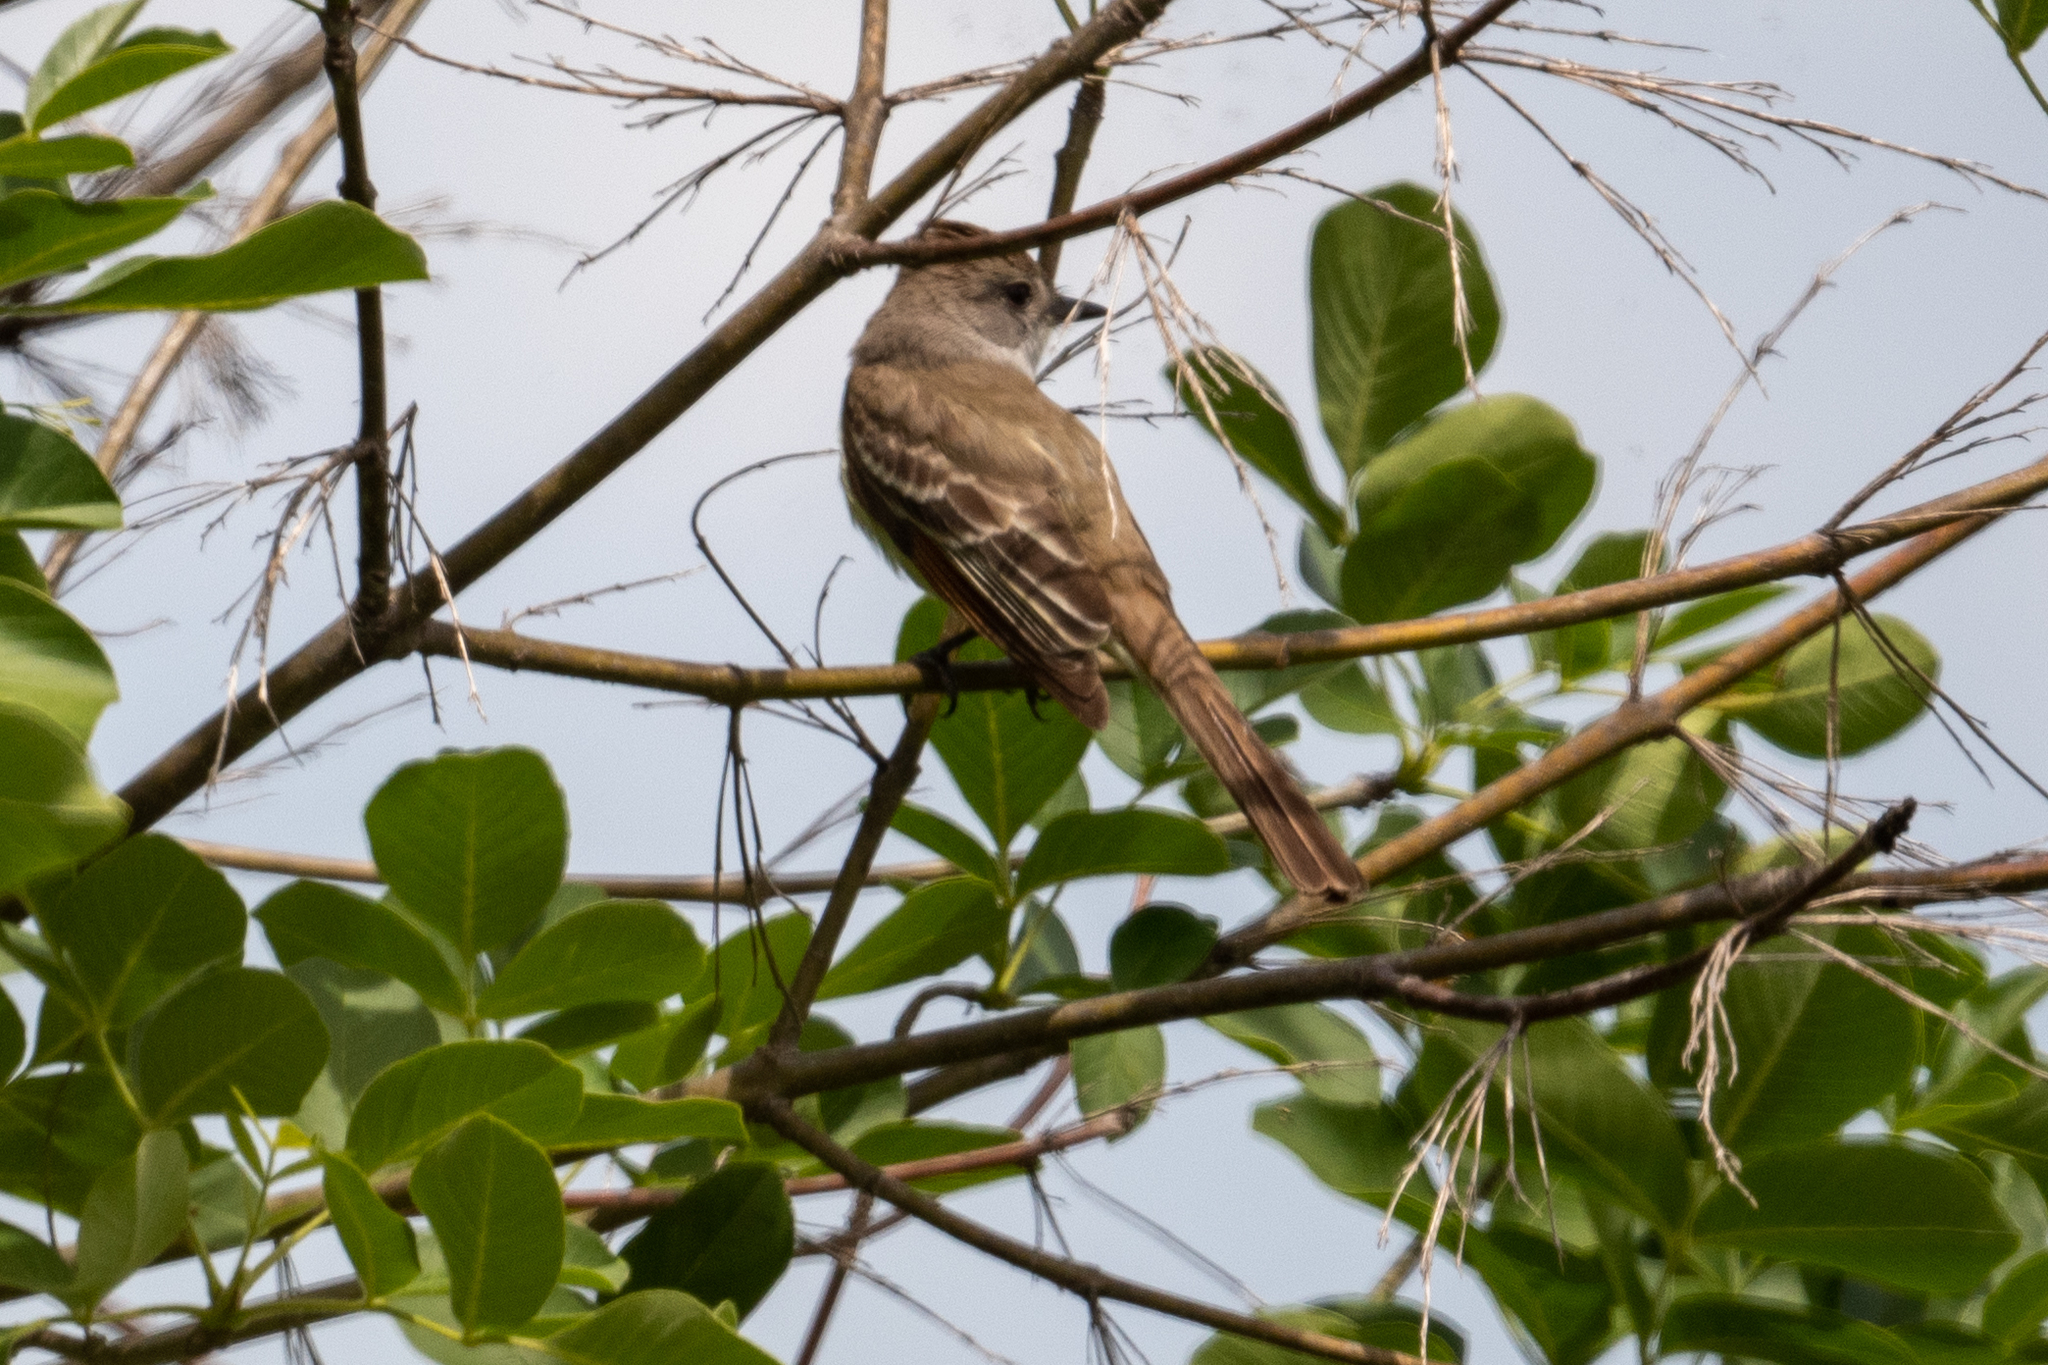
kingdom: Animalia
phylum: Chordata
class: Aves
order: Passeriformes
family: Tyrannidae
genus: Myiarchus
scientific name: Myiarchus cinerascens
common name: Ash-throated flycatcher
